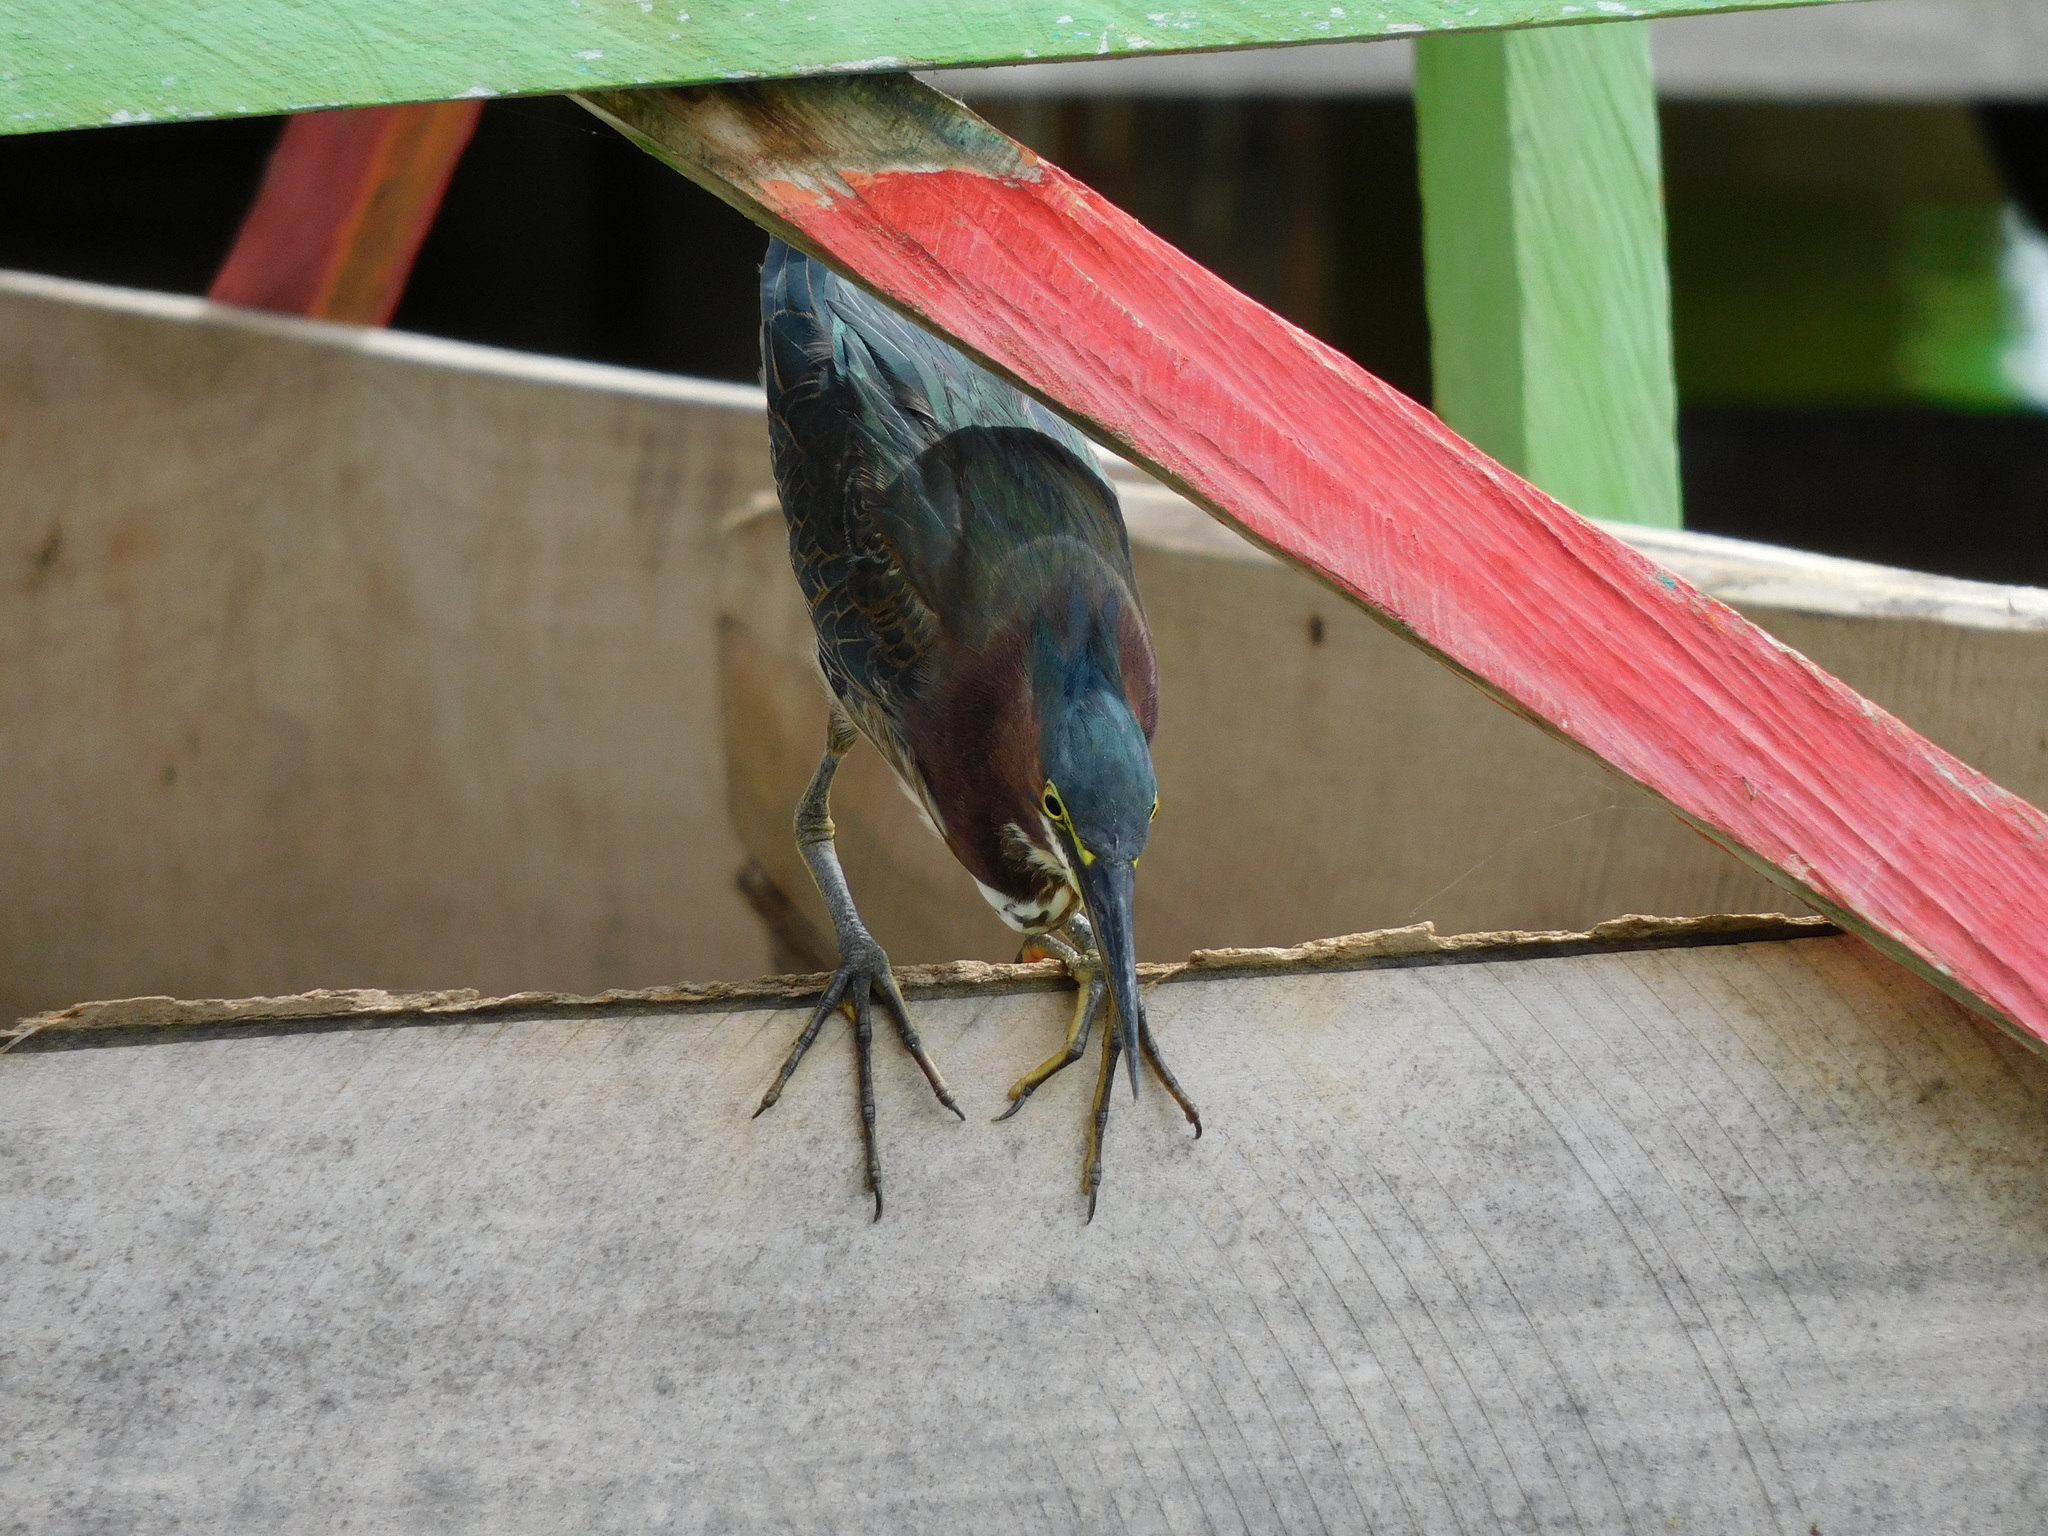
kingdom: Animalia
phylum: Chordata
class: Aves
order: Pelecaniformes
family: Ardeidae
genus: Butorides
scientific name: Butorides virescens
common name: Green heron
